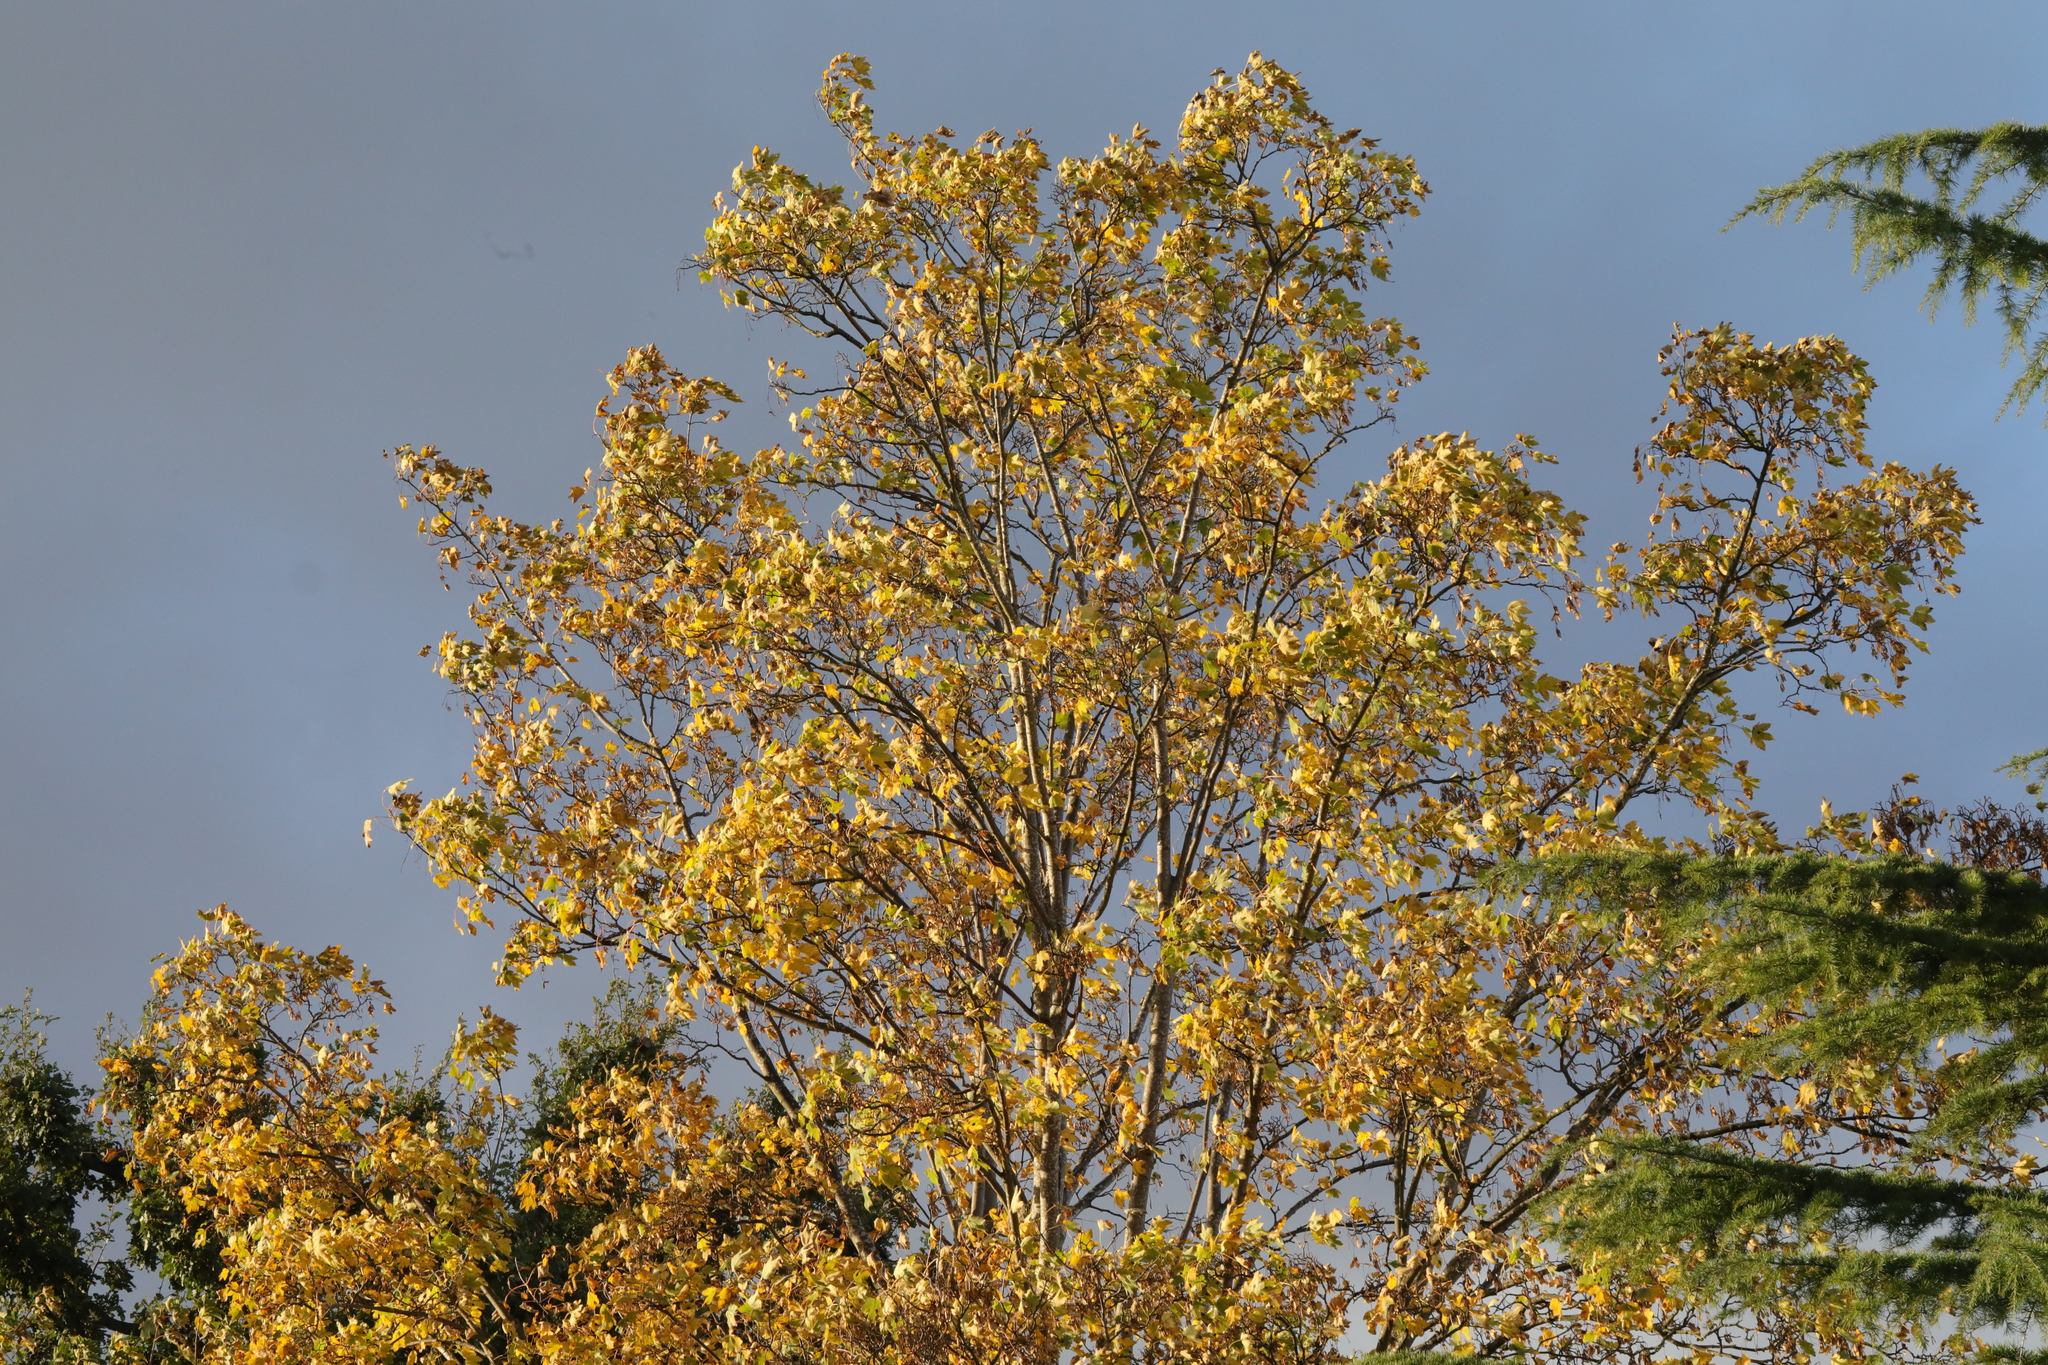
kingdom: Plantae
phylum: Tracheophyta
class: Magnoliopsida
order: Sapindales
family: Sapindaceae
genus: Acer
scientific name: Acer pseudoplatanus
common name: Sycamore
